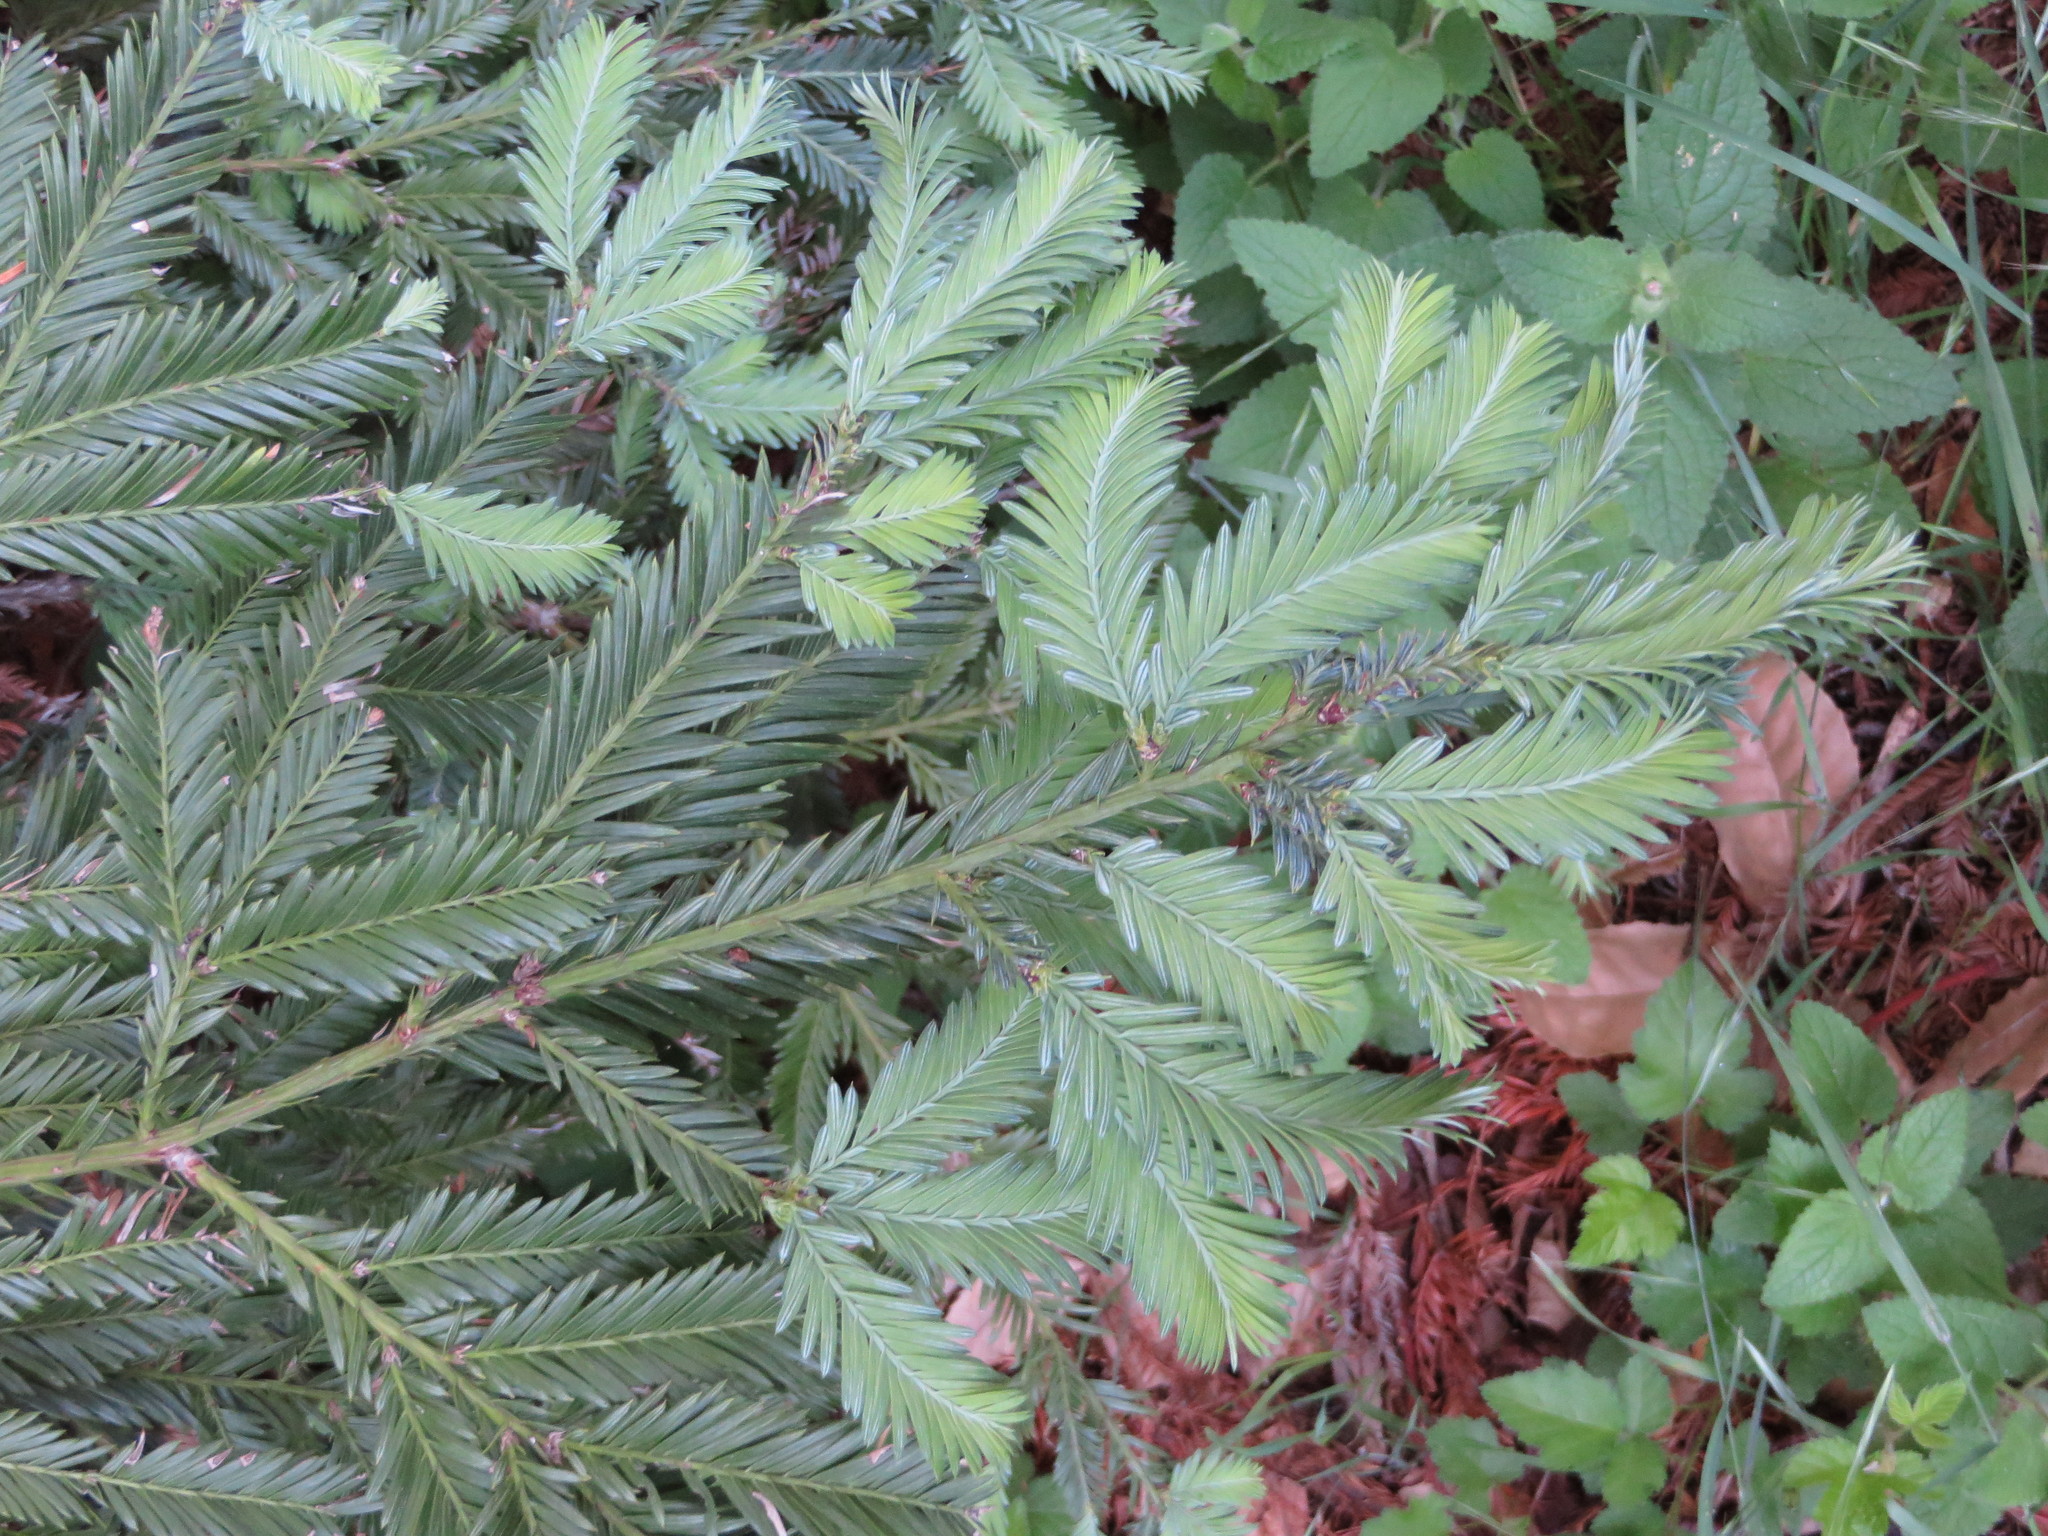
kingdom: Plantae
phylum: Tracheophyta
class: Pinopsida
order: Pinales
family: Cupressaceae
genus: Sequoia
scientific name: Sequoia sempervirens
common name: Coast redwood
